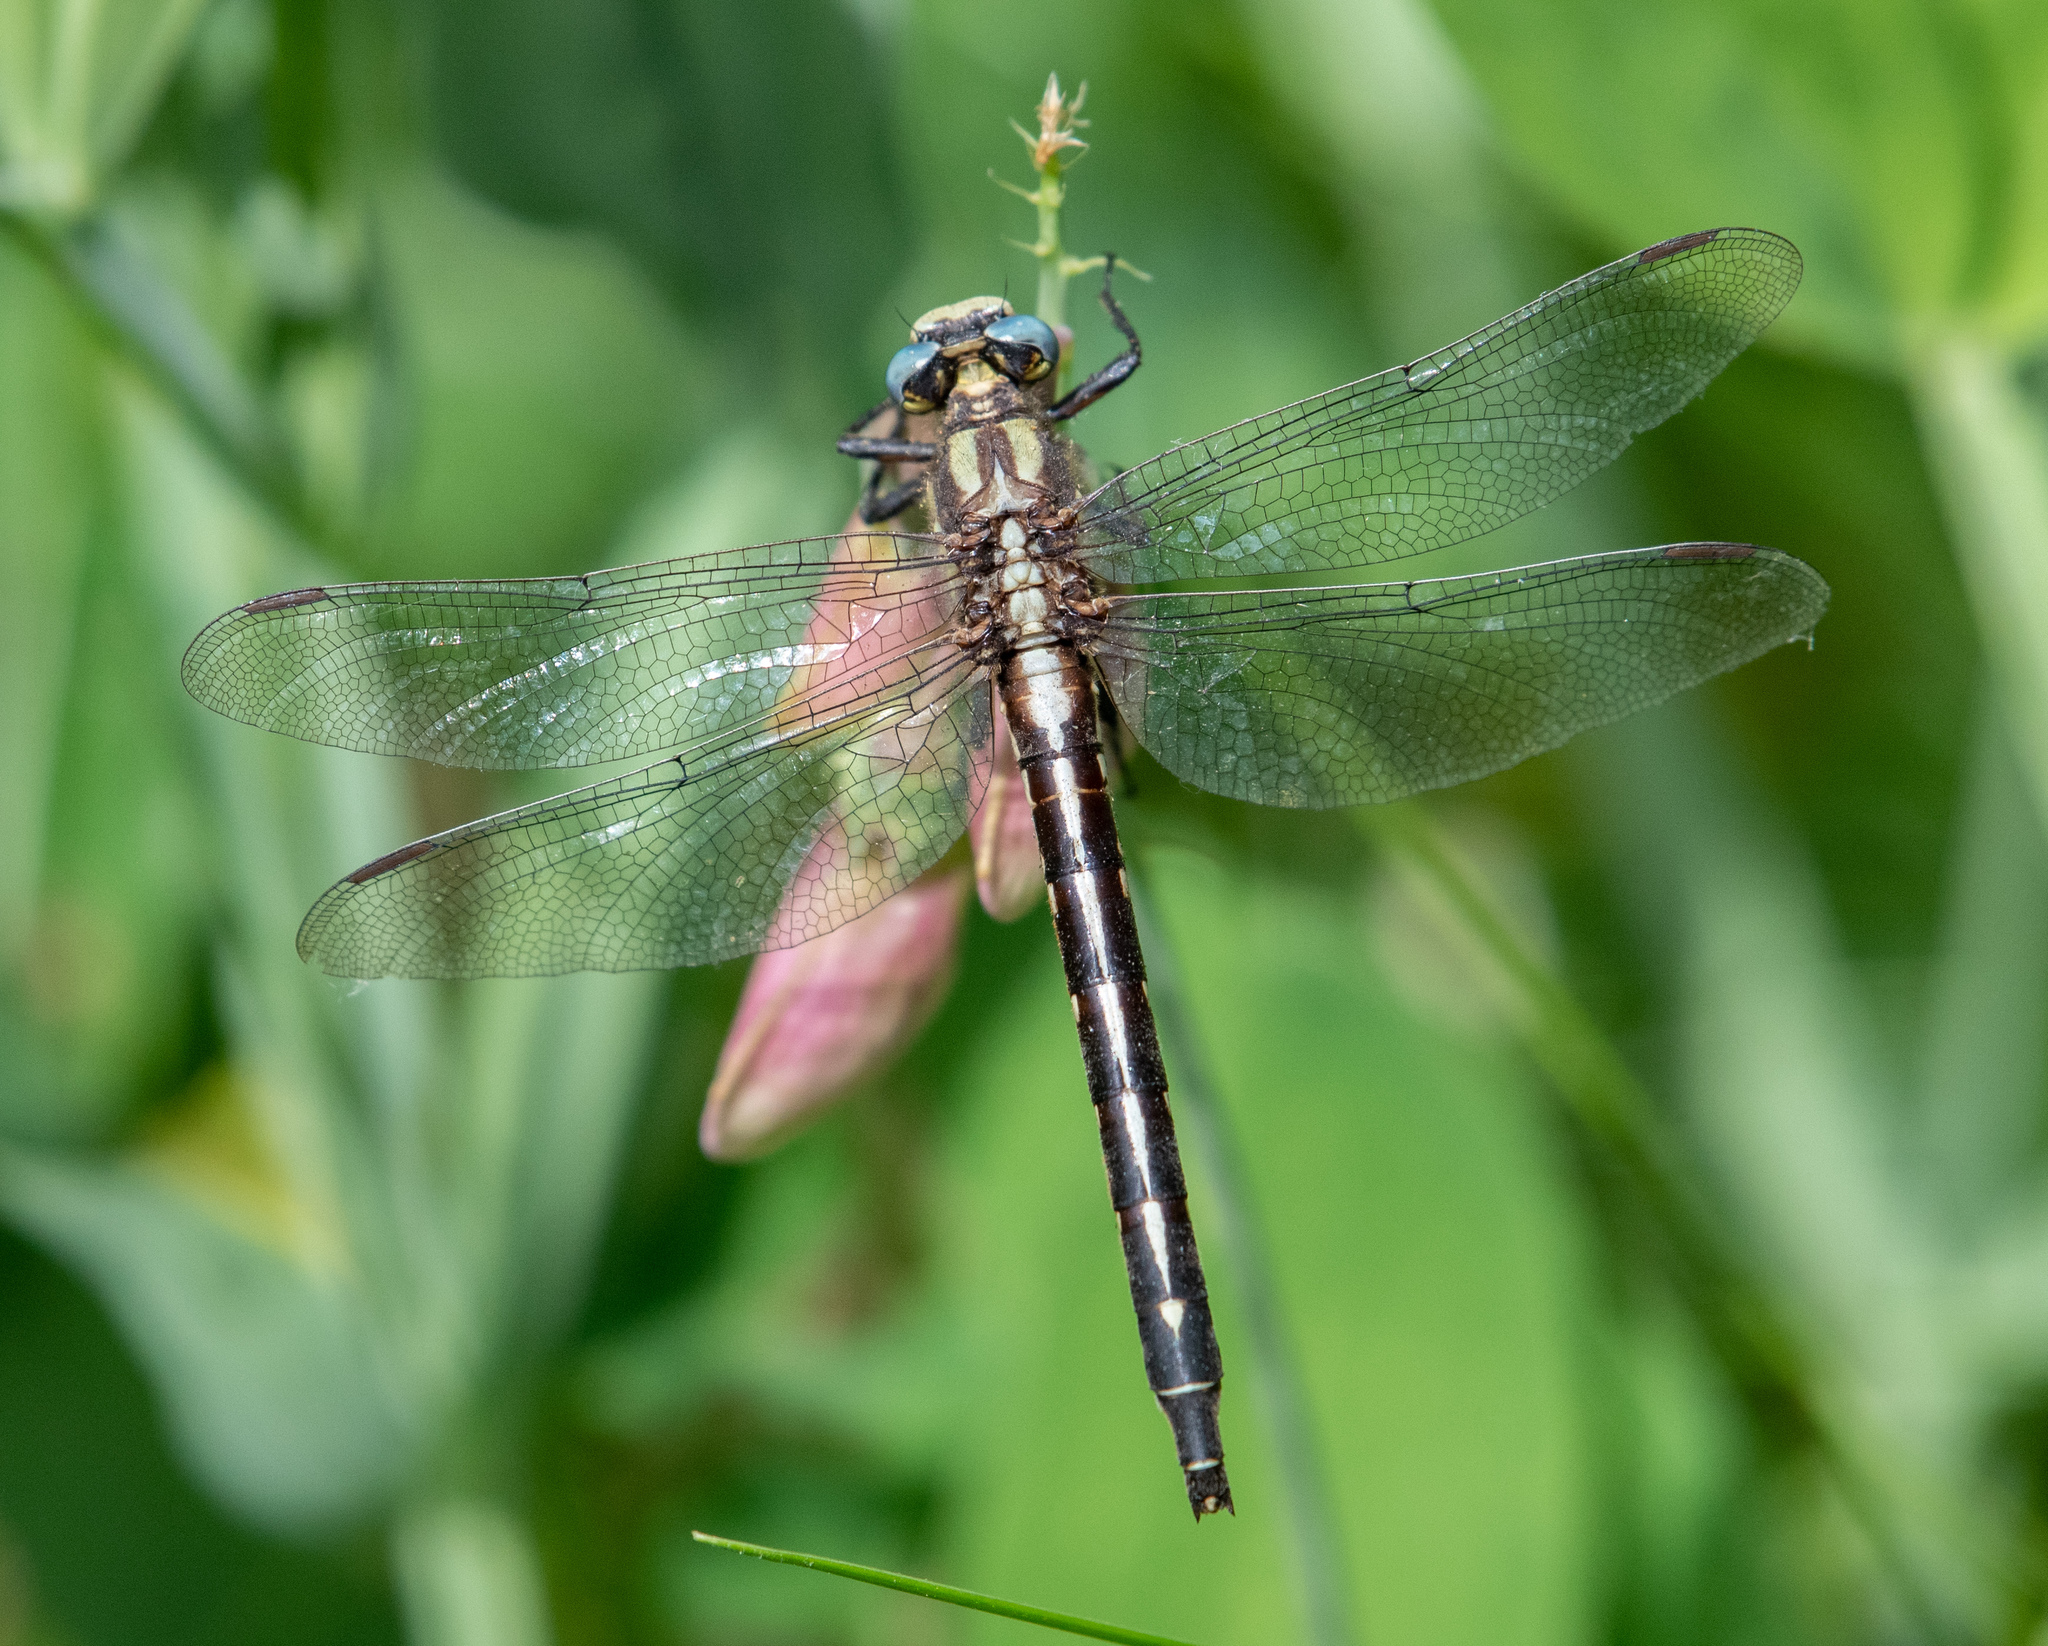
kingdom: Animalia
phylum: Arthropoda
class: Insecta
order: Odonata
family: Gomphidae
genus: Phanogomphus
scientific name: Phanogomphus kurilis
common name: Pacific clubtail
